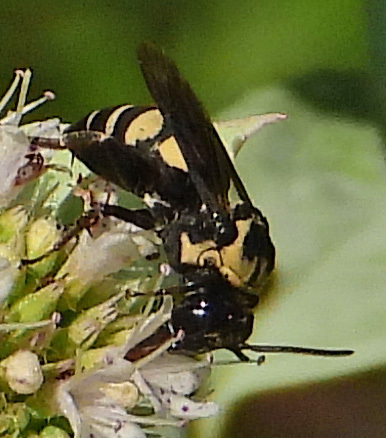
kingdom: Animalia
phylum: Arthropoda
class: Insecta
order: Hymenoptera
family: Apidae
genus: Triepeolus
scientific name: Triepeolus remigatus
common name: Squash longhorn-cuckoo
